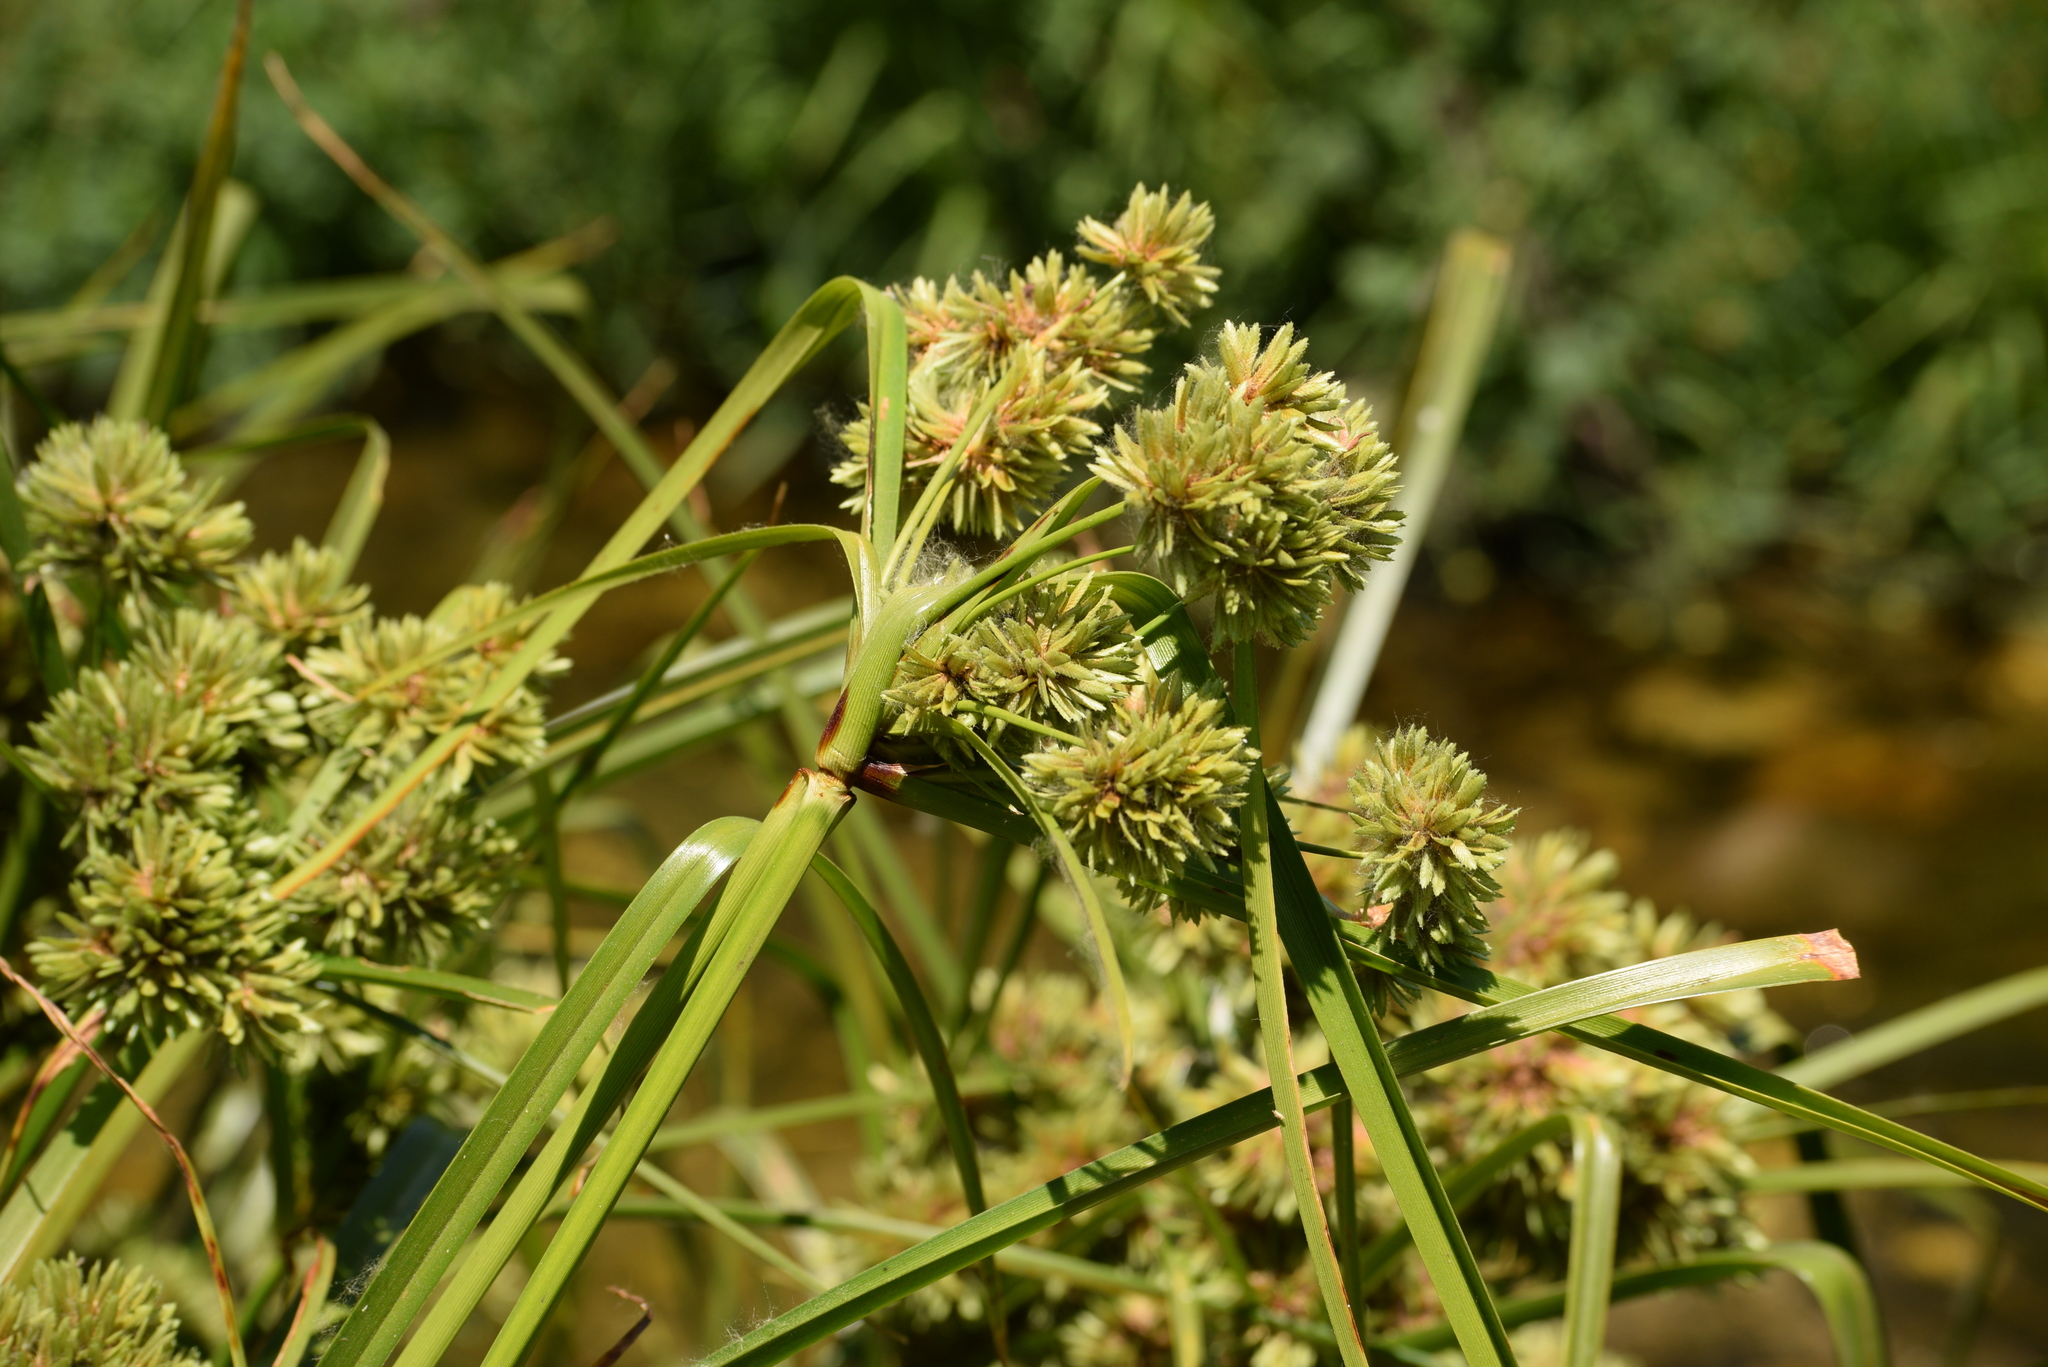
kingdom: Plantae
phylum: Tracheophyta
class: Liliopsida
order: Poales
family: Cyperaceae
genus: Cyperus
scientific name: Cyperus eragrostis
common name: Tall flatsedge
